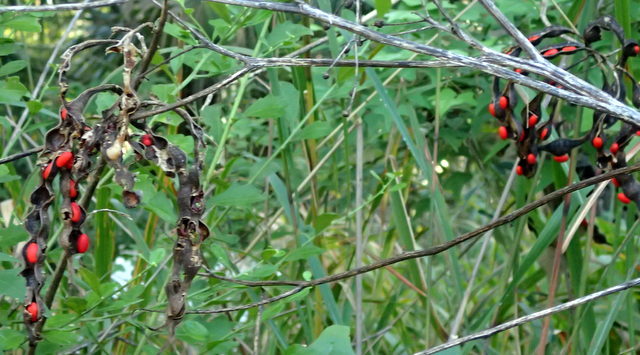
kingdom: Plantae
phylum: Tracheophyta
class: Magnoliopsida
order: Fabales
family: Fabaceae
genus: Erythrina
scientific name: Erythrina herbacea
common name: Coral-bean
